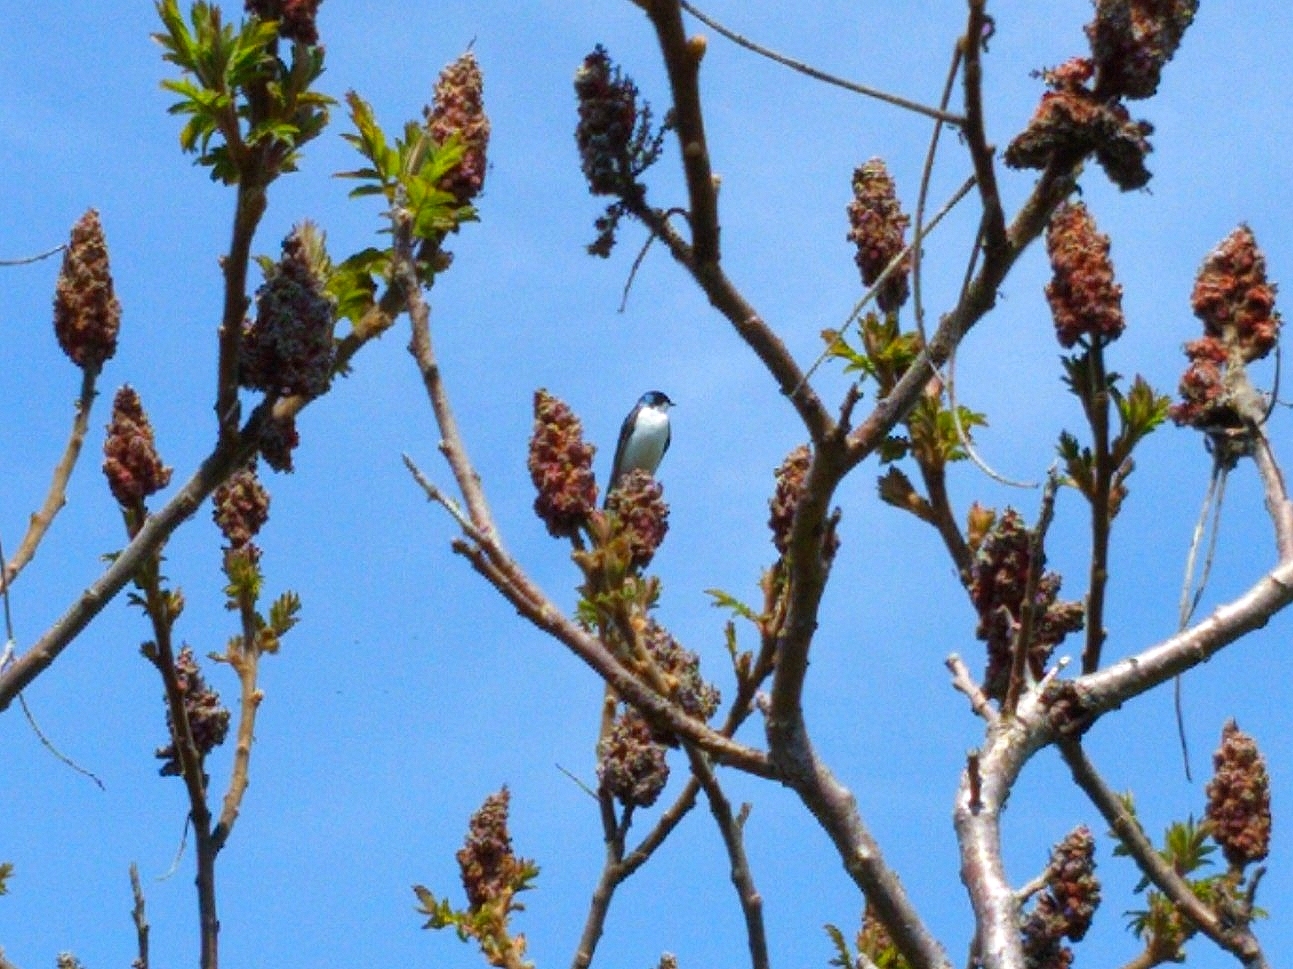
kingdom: Animalia
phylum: Chordata
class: Aves
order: Passeriformes
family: Hirundinidae
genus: Tachycineta
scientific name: Tachycineta bicolor
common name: Tree swallow
